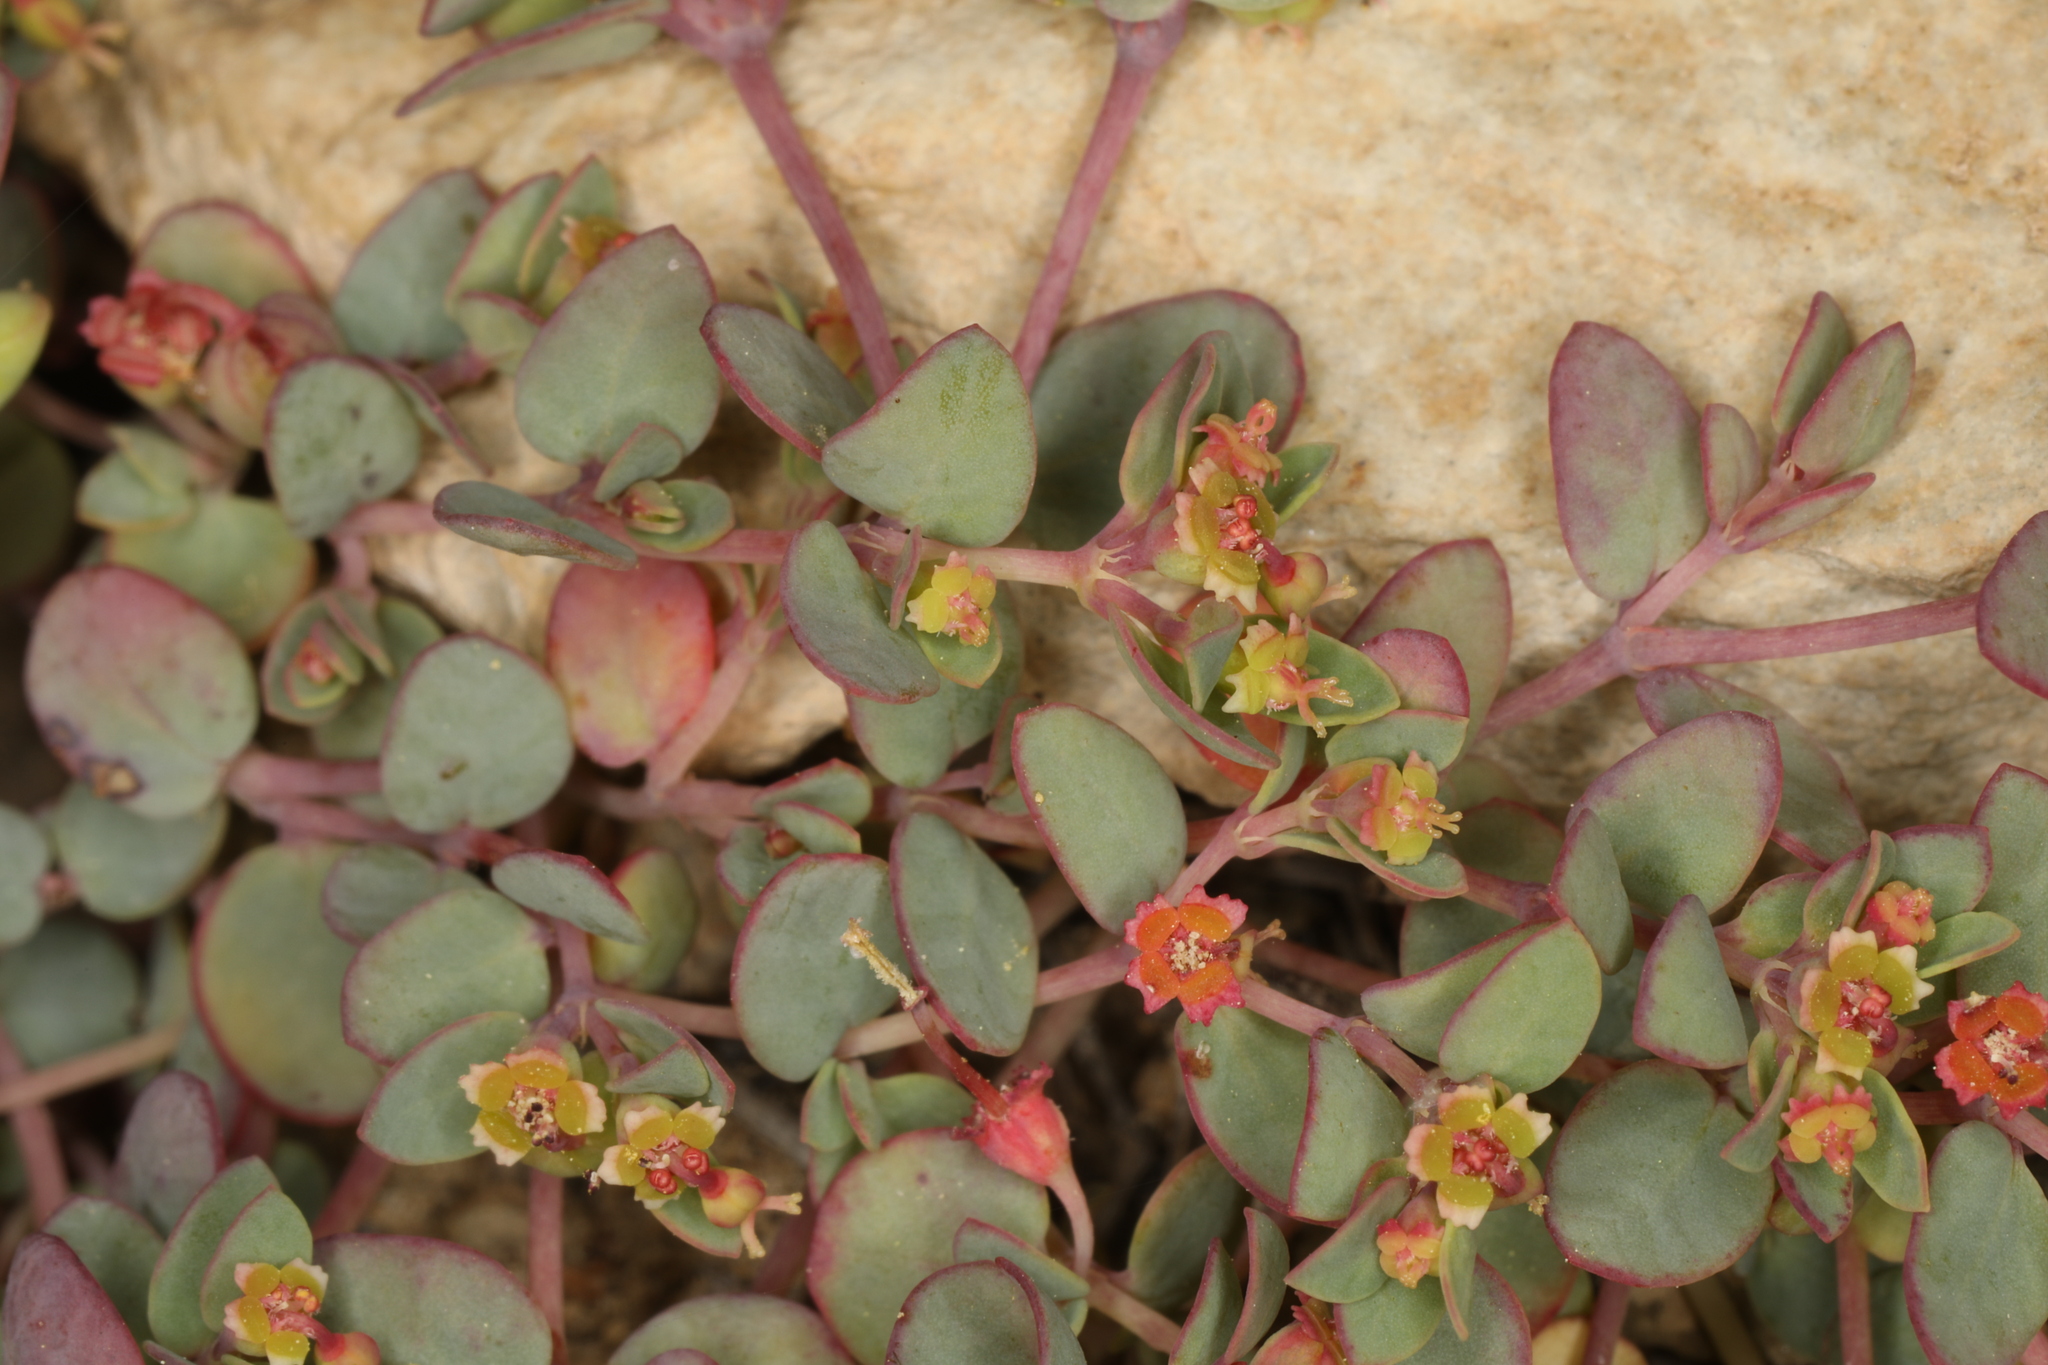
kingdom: Plantae
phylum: Tracheophyta
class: Magnoliopsida
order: Malpighiales
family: Euphorbiaceae
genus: Euphorbia
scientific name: Euphorbia fendleri
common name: Fendler's euphorbia
